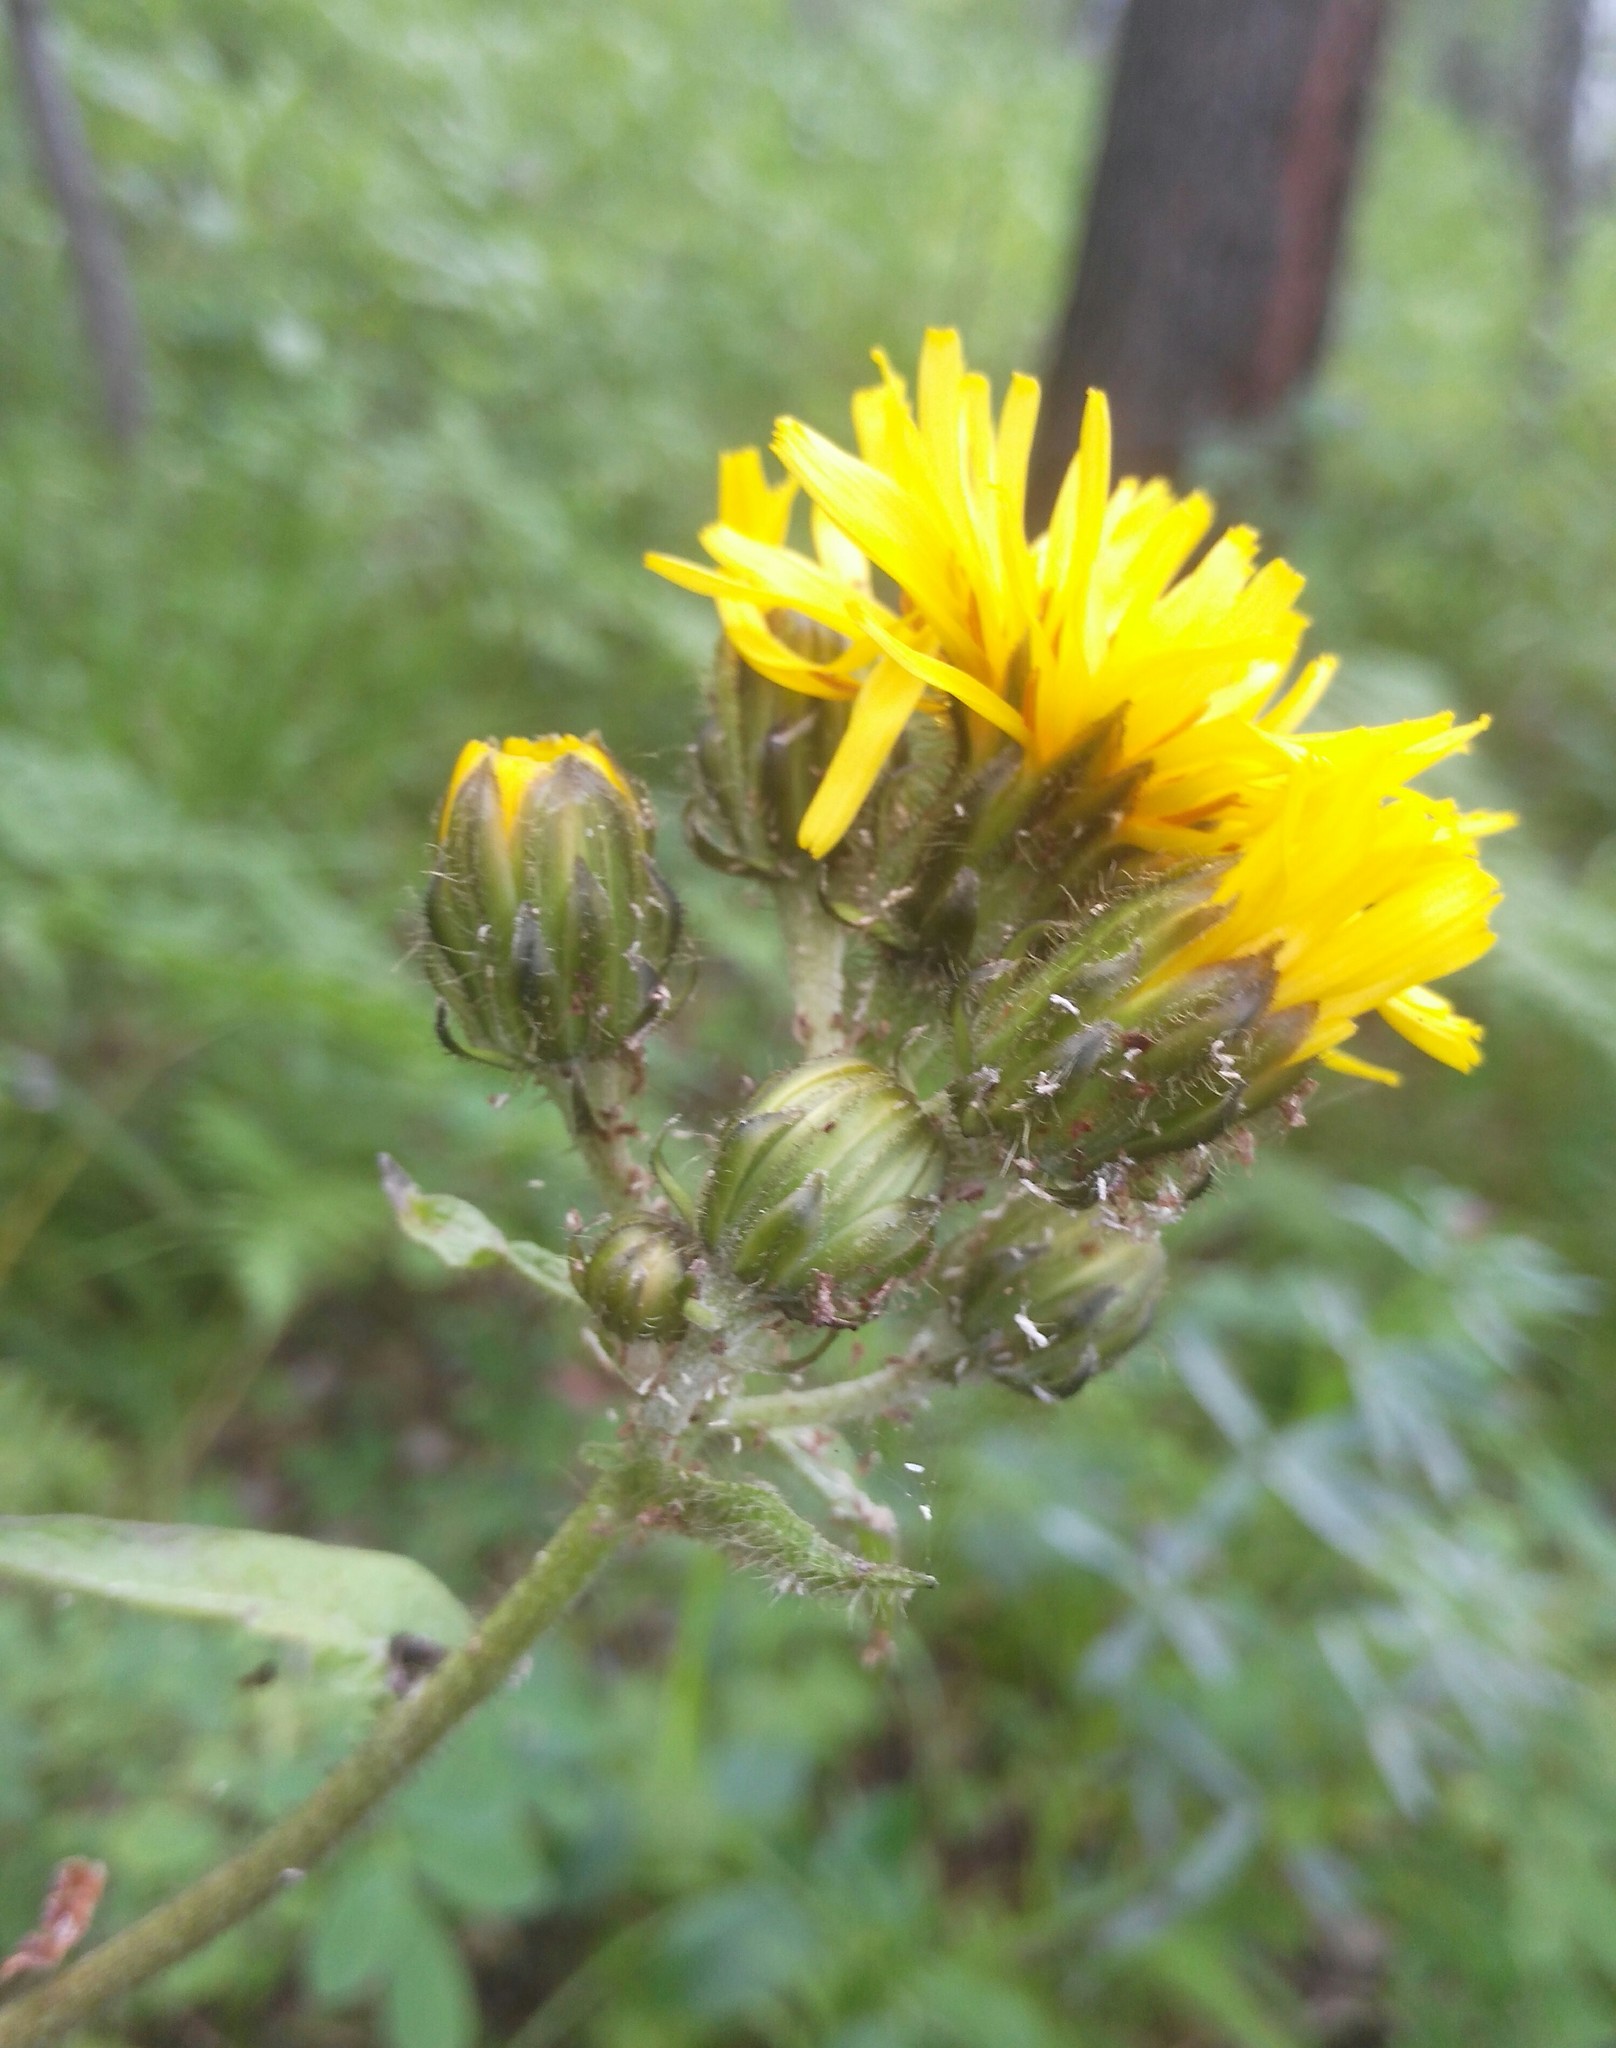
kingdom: Plantae
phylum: Tracheophyta
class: Magnoliopsida
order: Asterales
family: Asteraceae
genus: Crepis
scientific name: Crepis sibirica
